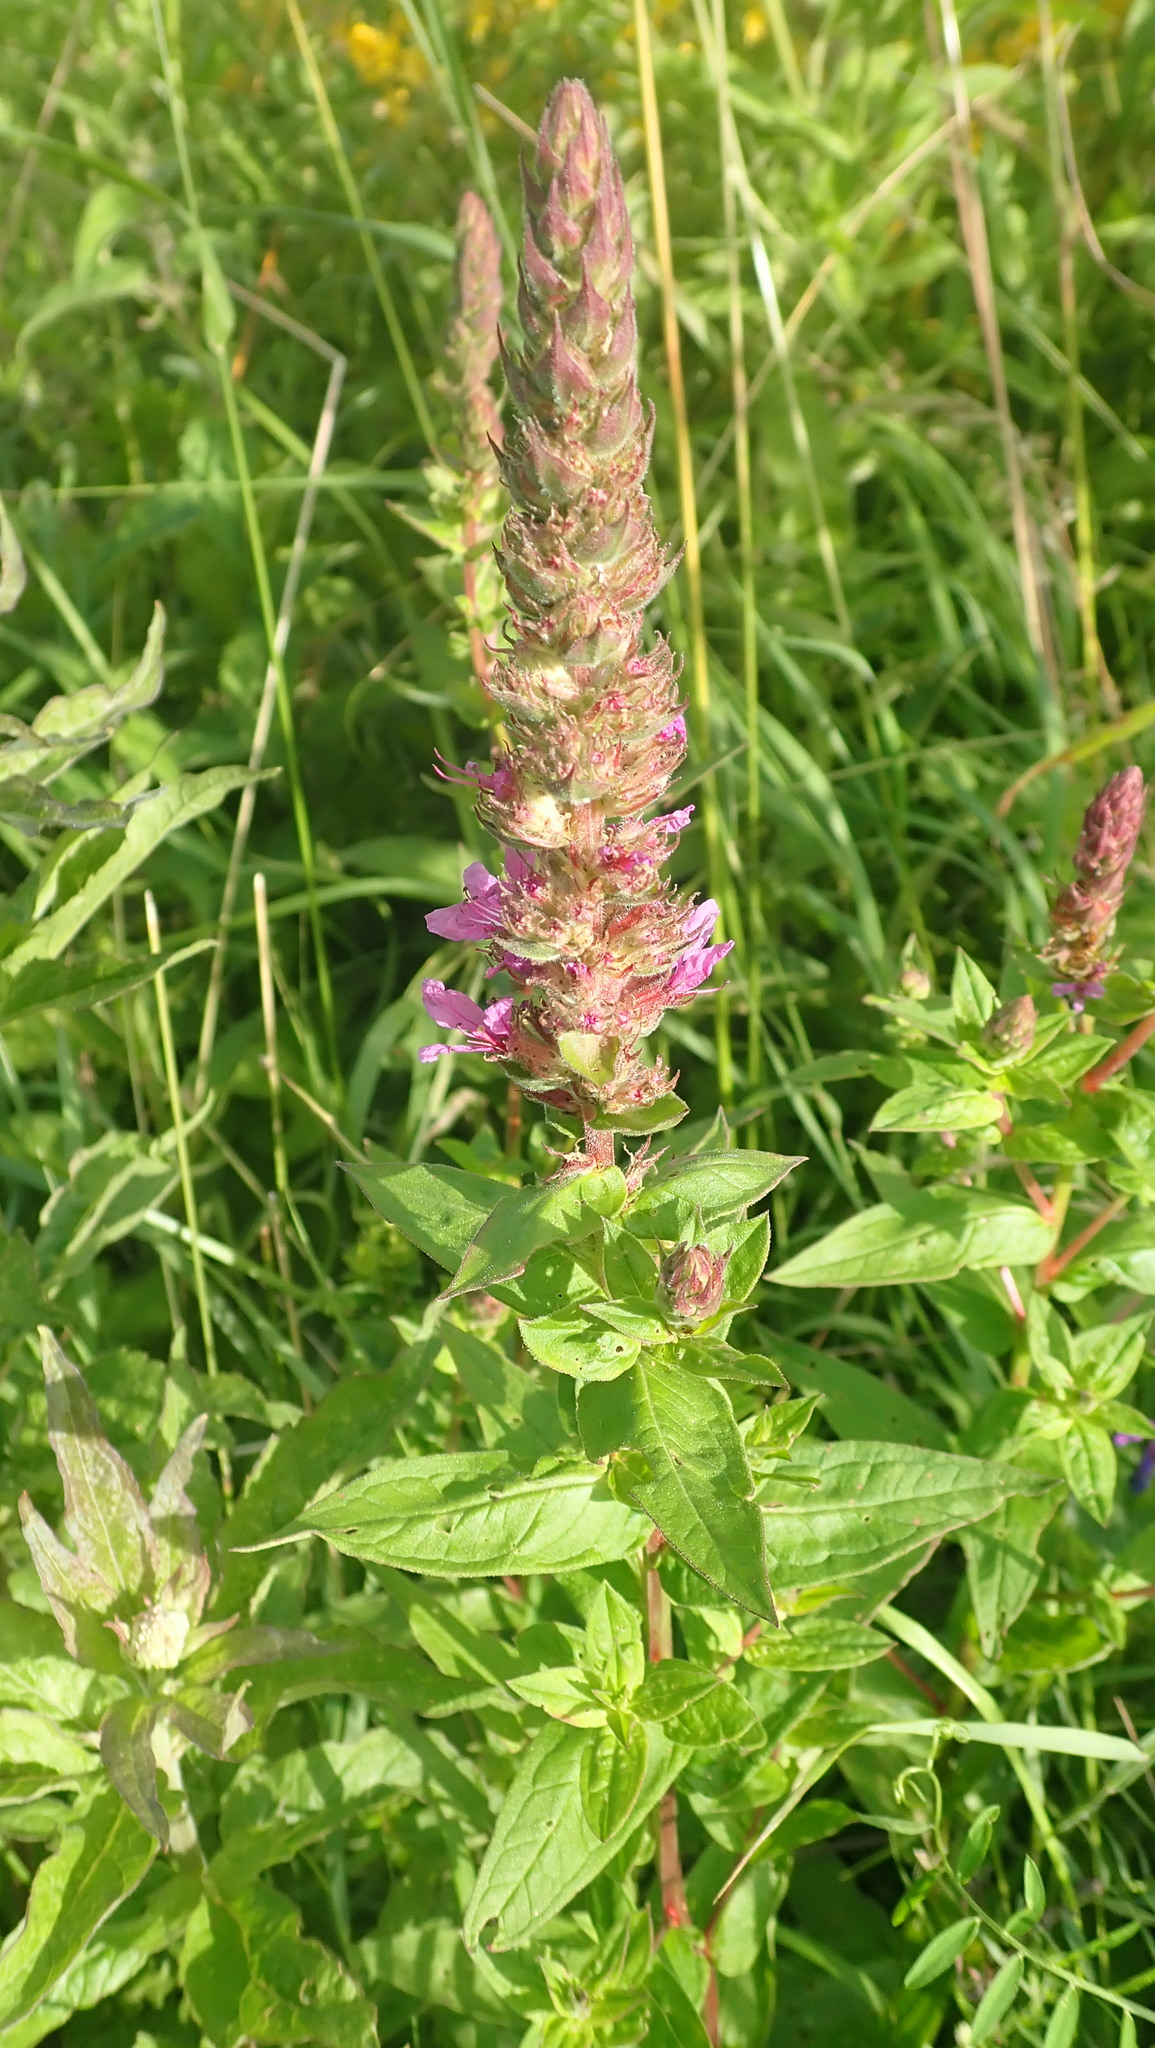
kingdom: Plantae
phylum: Tracheophyta
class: Magnoliopsida
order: Myrtales
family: Lythraceae
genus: Lythrum
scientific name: Lythrum salicaria
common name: Purple loosestrife
